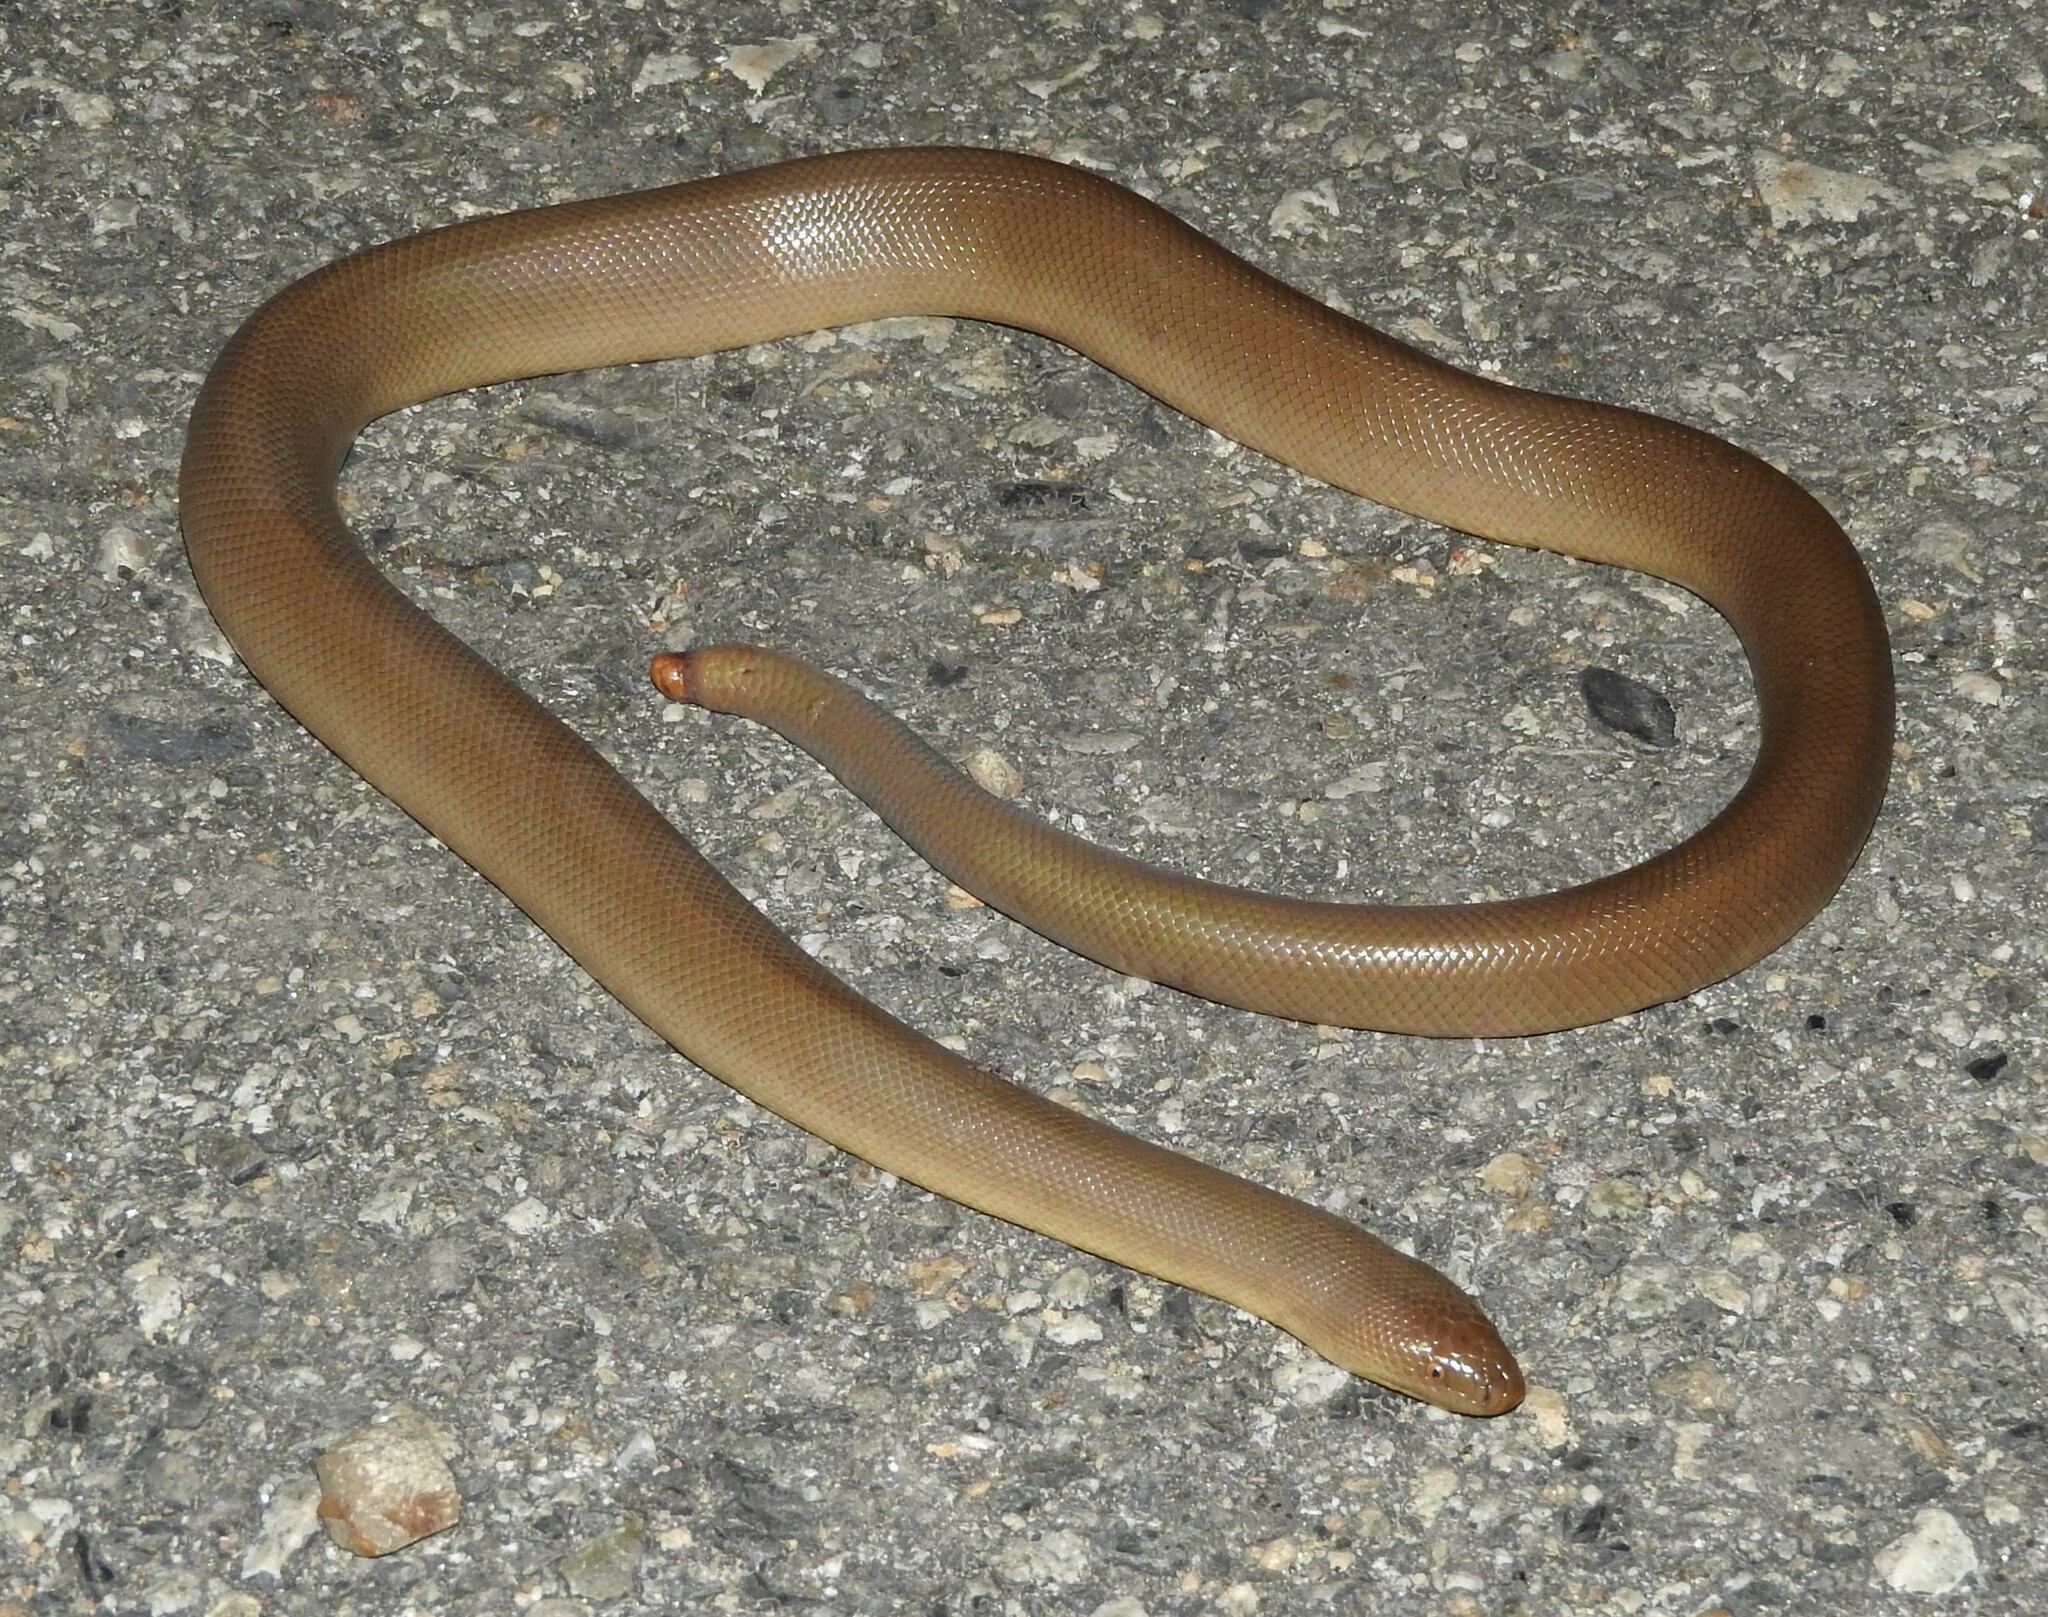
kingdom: Animalia
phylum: Chordata
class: Squamata
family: Boidae
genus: Charina
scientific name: Charina bottae
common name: Northern rubber boa
